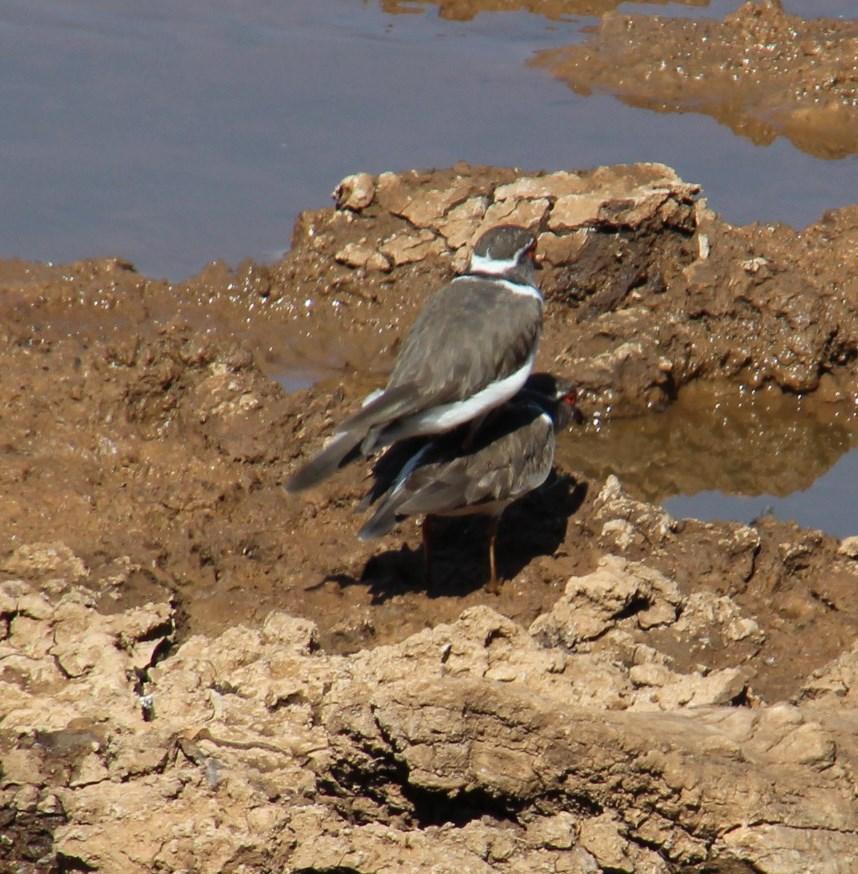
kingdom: Animalia
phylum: Chordata
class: Aves
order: Charadriiformes
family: Charadriidae
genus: Charadrius
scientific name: Charadrius tricollaris
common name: Three-banded plover
